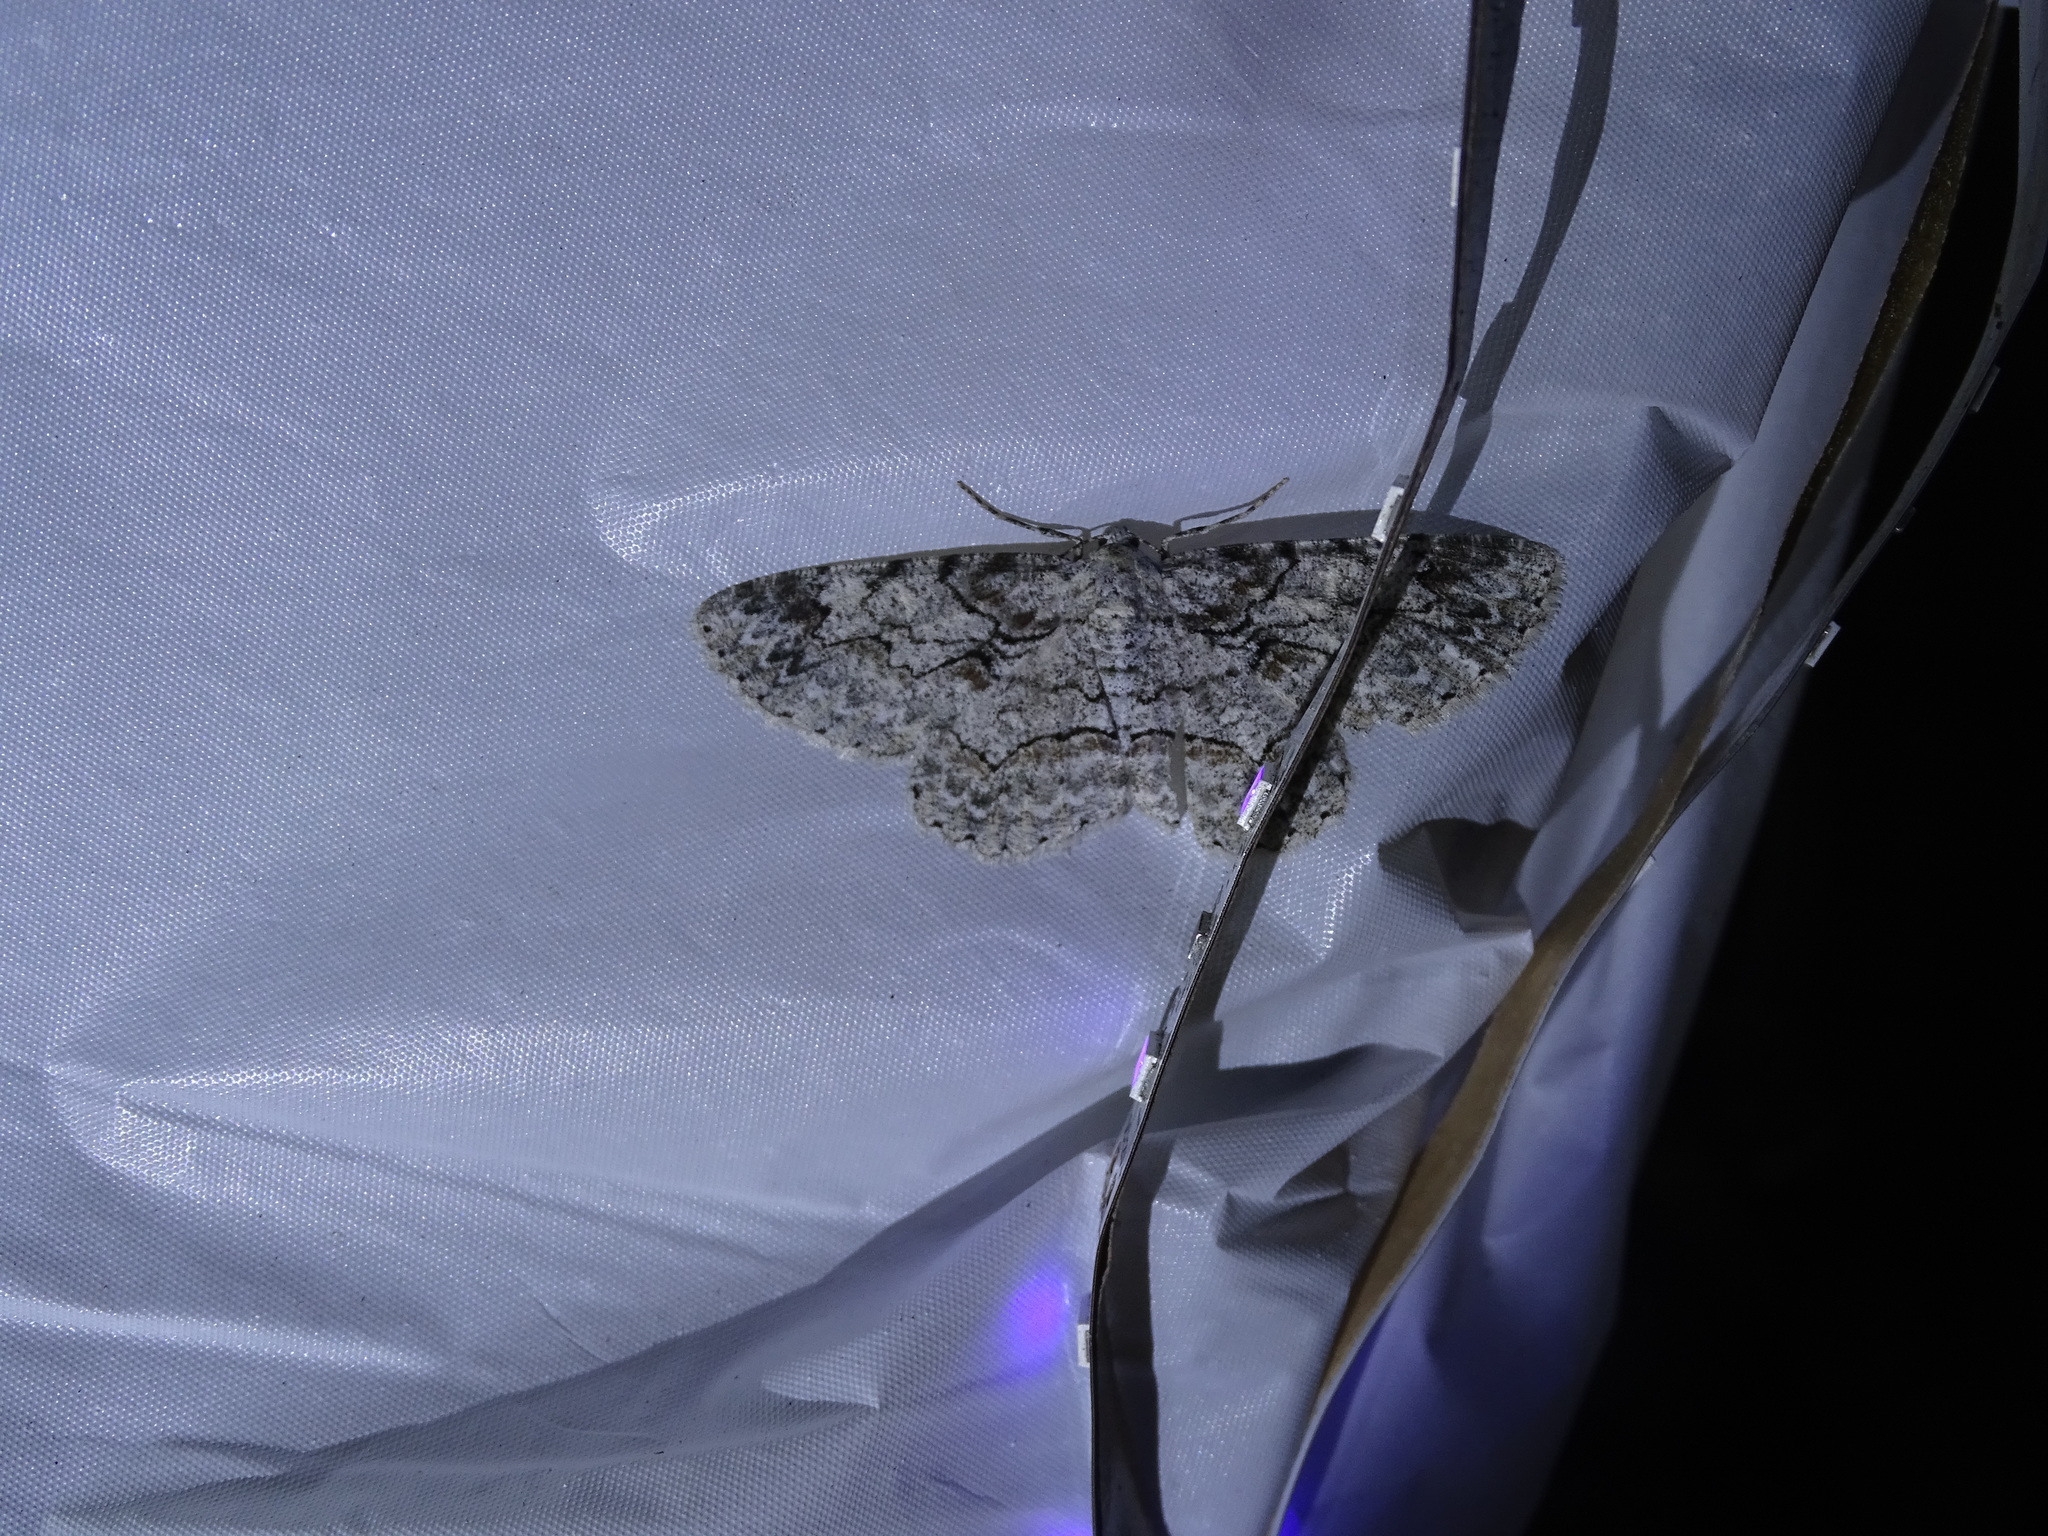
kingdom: Animalia
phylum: Arthropoda
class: Insecta
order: Lepidoptera
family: Geometridae
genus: Iridopsis
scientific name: Iridopsis defectaria
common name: Brown-shaded gray
